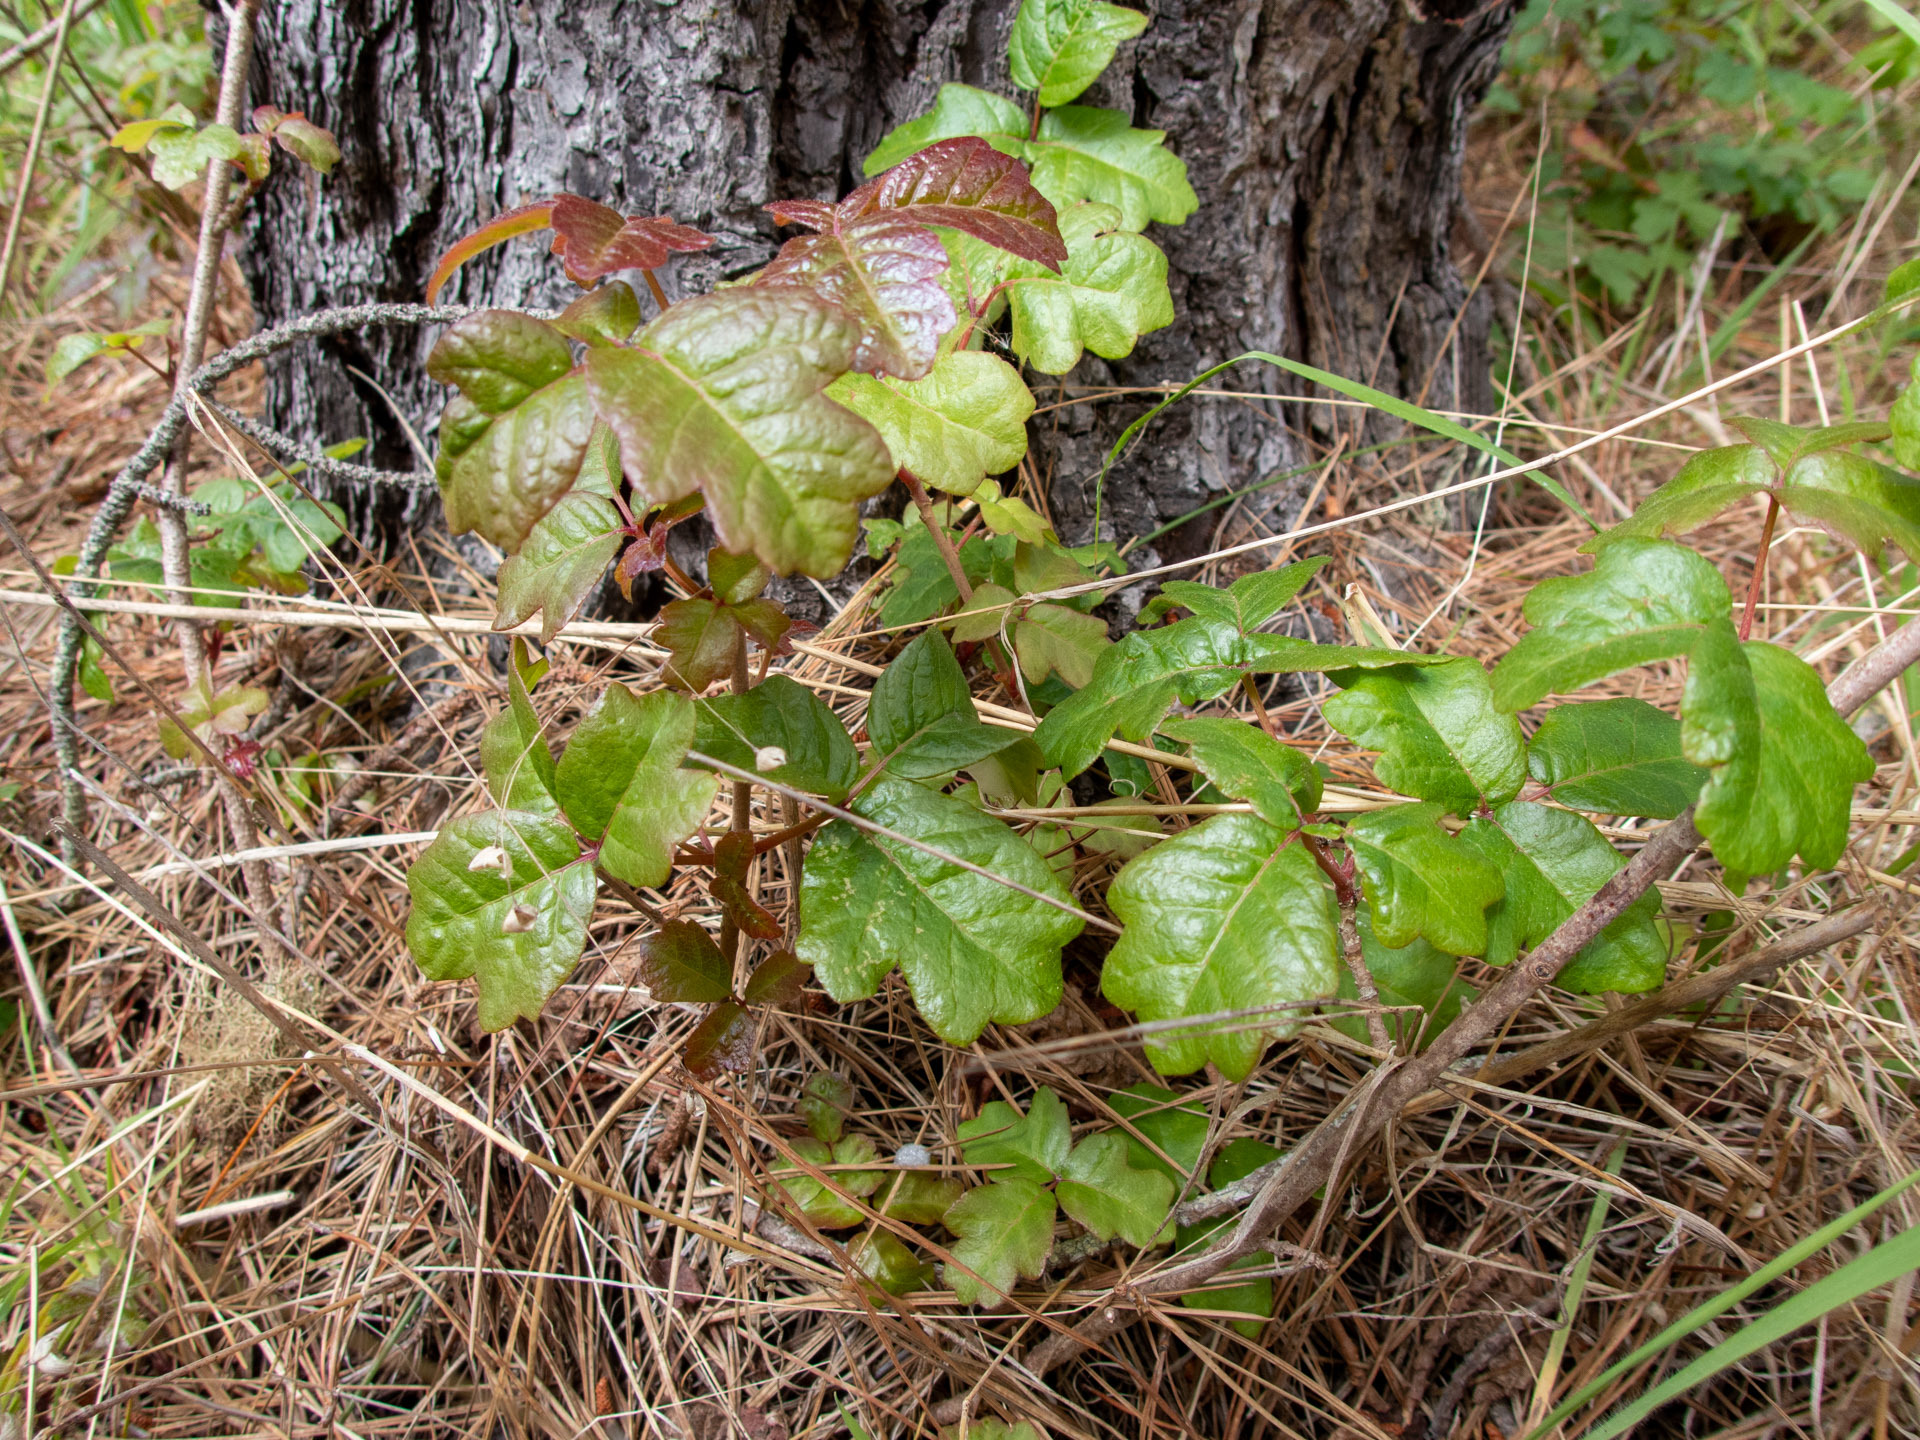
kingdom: Plantae
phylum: Tracheophyta
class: Magnoliopsida
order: Sapindales
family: Anacardiaceae
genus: Toxicodendron
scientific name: Toxicodendron diversilobum
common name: Pacific poison-oak
